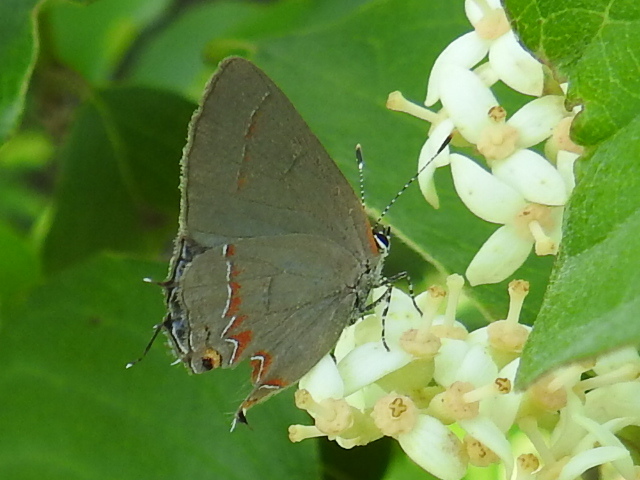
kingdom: Animalia
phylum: Arthropoda
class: Insecta
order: Lepidoptera
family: Lycaenidae
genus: Strymon
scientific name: Strymon melinus
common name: Gray hairstreak
